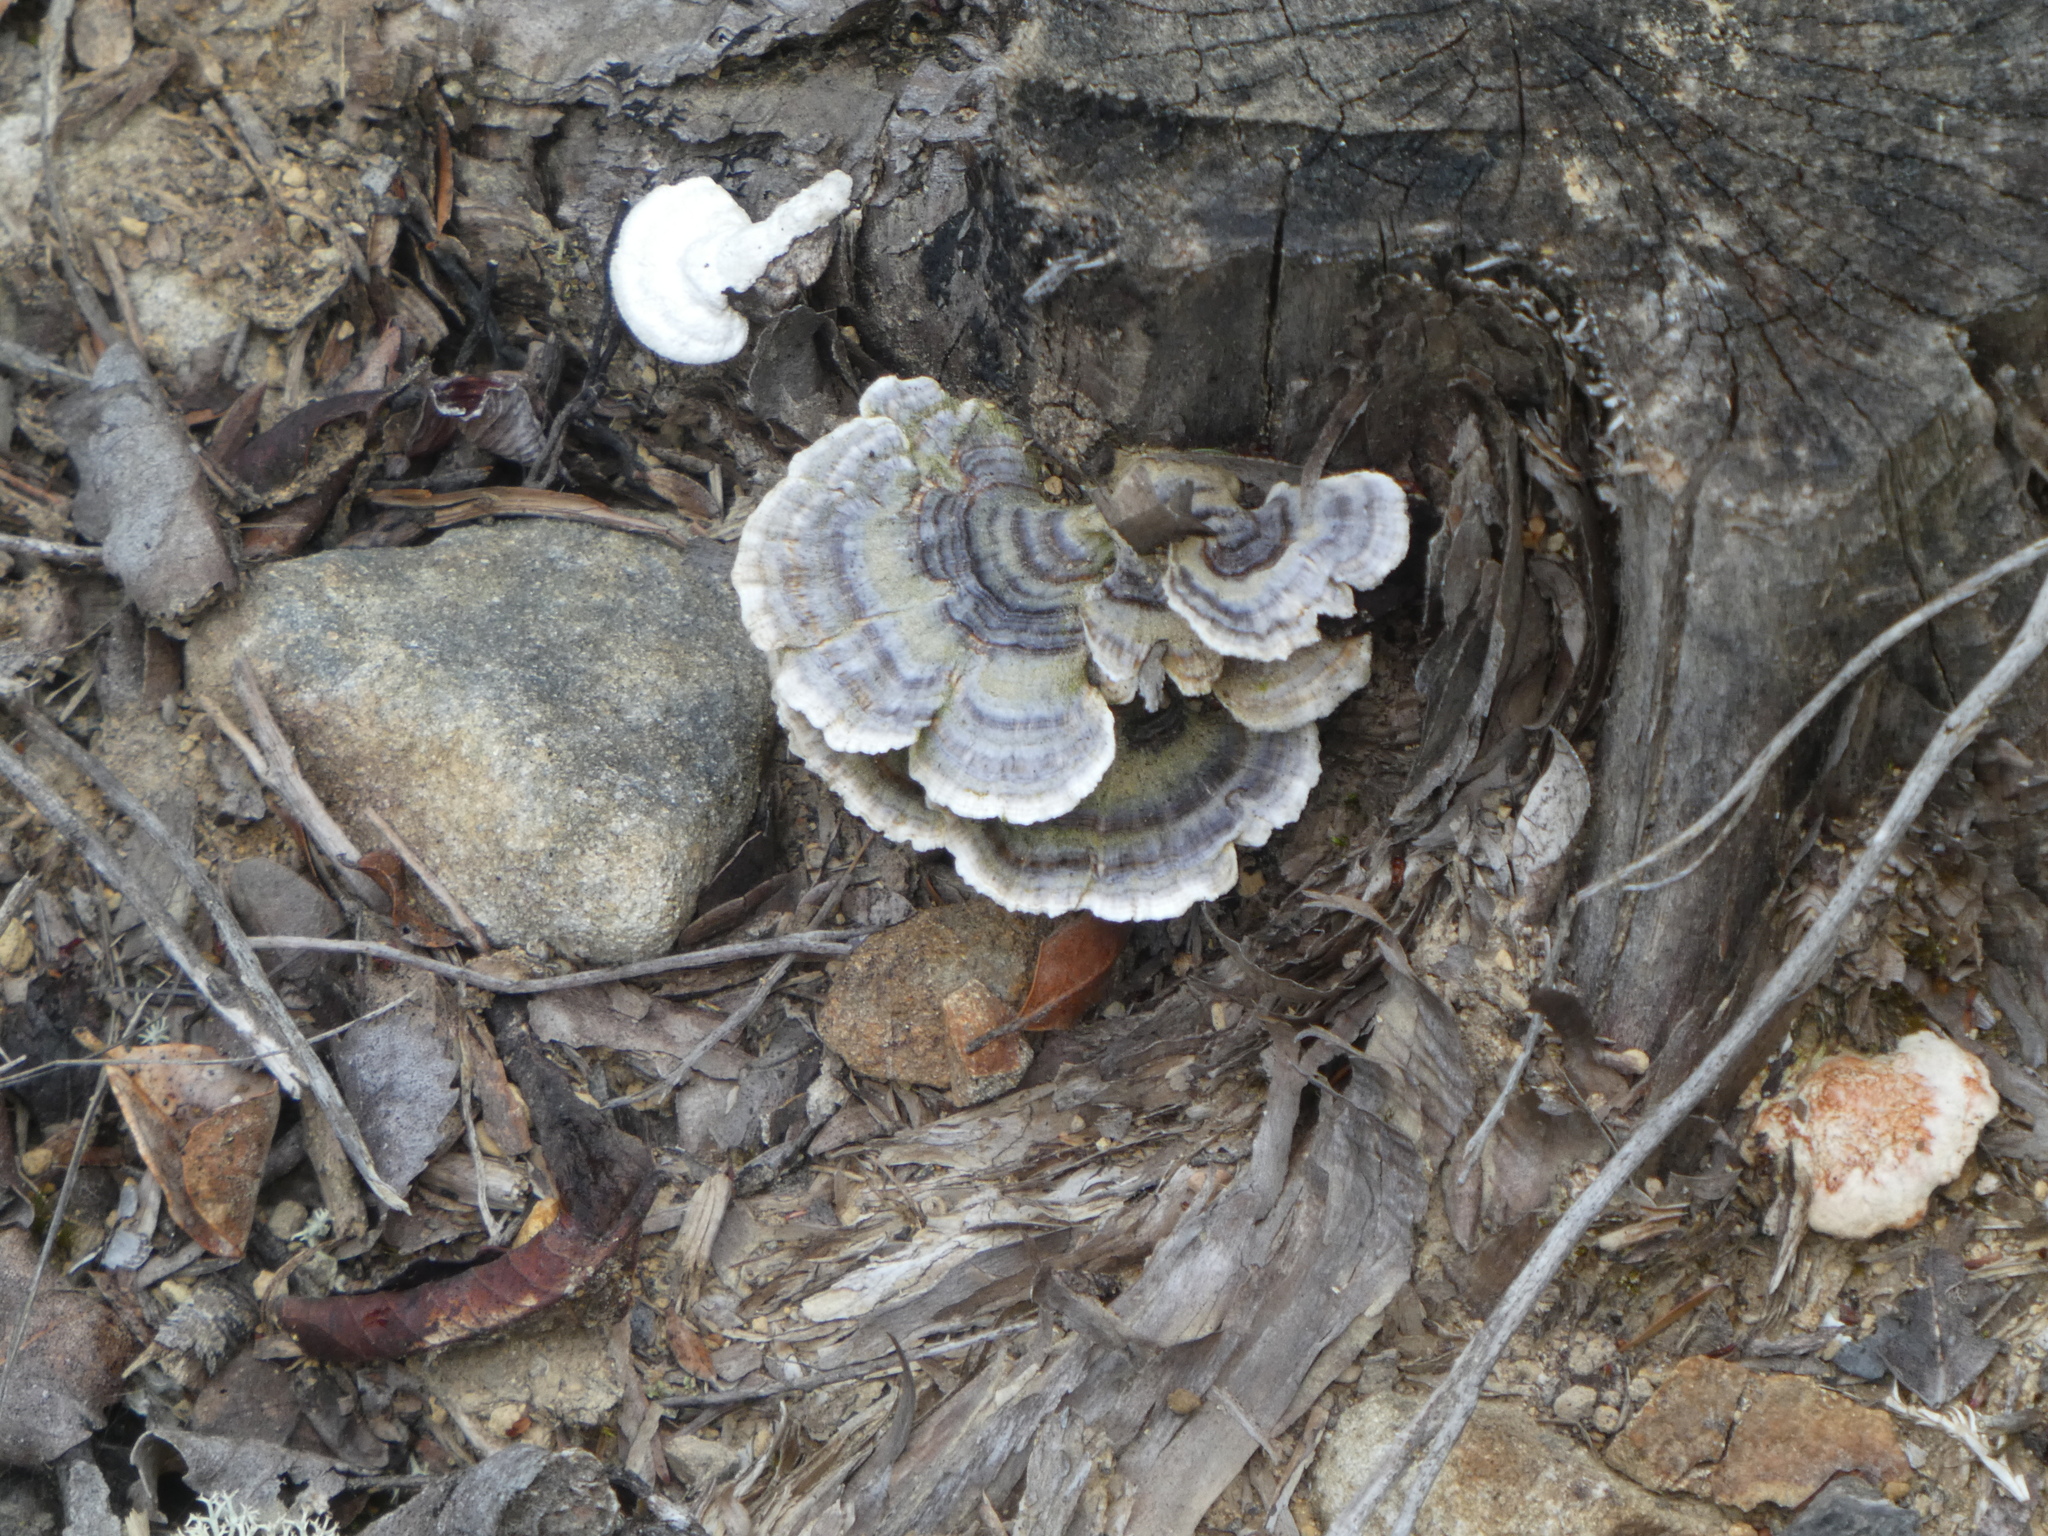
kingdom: Fungi
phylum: Basidiomycota
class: Agaricomycetes
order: Polyporales
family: Polyporaceae
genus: Trametes
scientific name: Trametes versicolor
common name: Turkeytail
